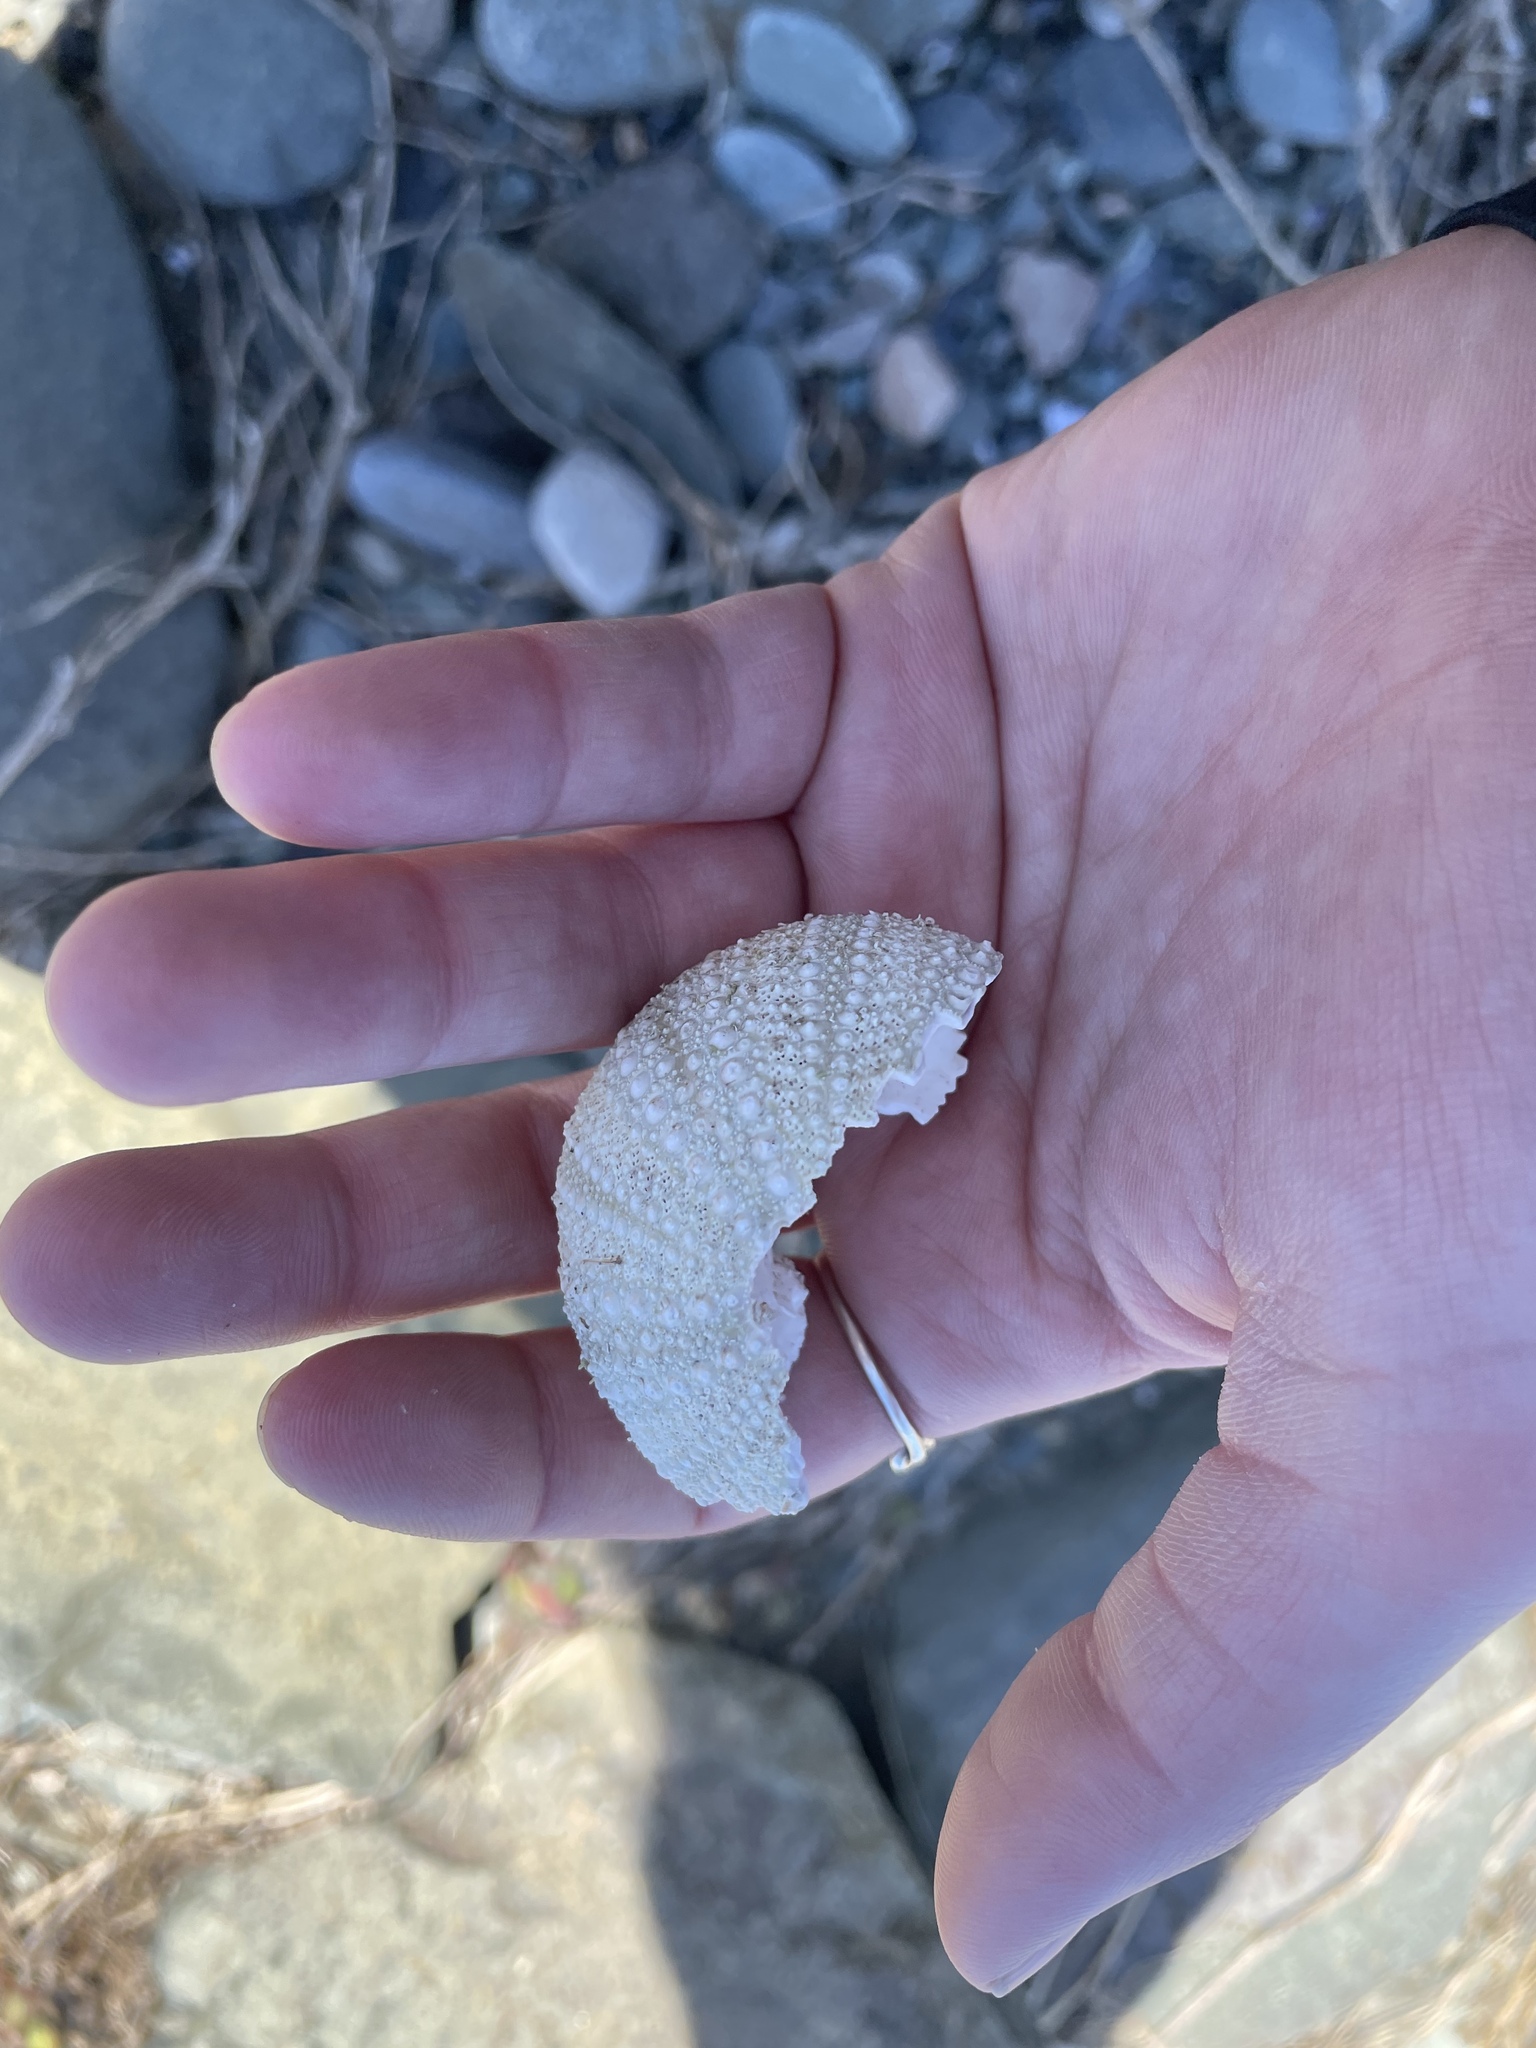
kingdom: Animalia
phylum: Echinodermata
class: Echinoidea
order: Camarodonta
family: Strongylocentrotidae
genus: Strongylocentrotus
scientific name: Strongylocentrotus droebachiensis
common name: Northern sea urchin
